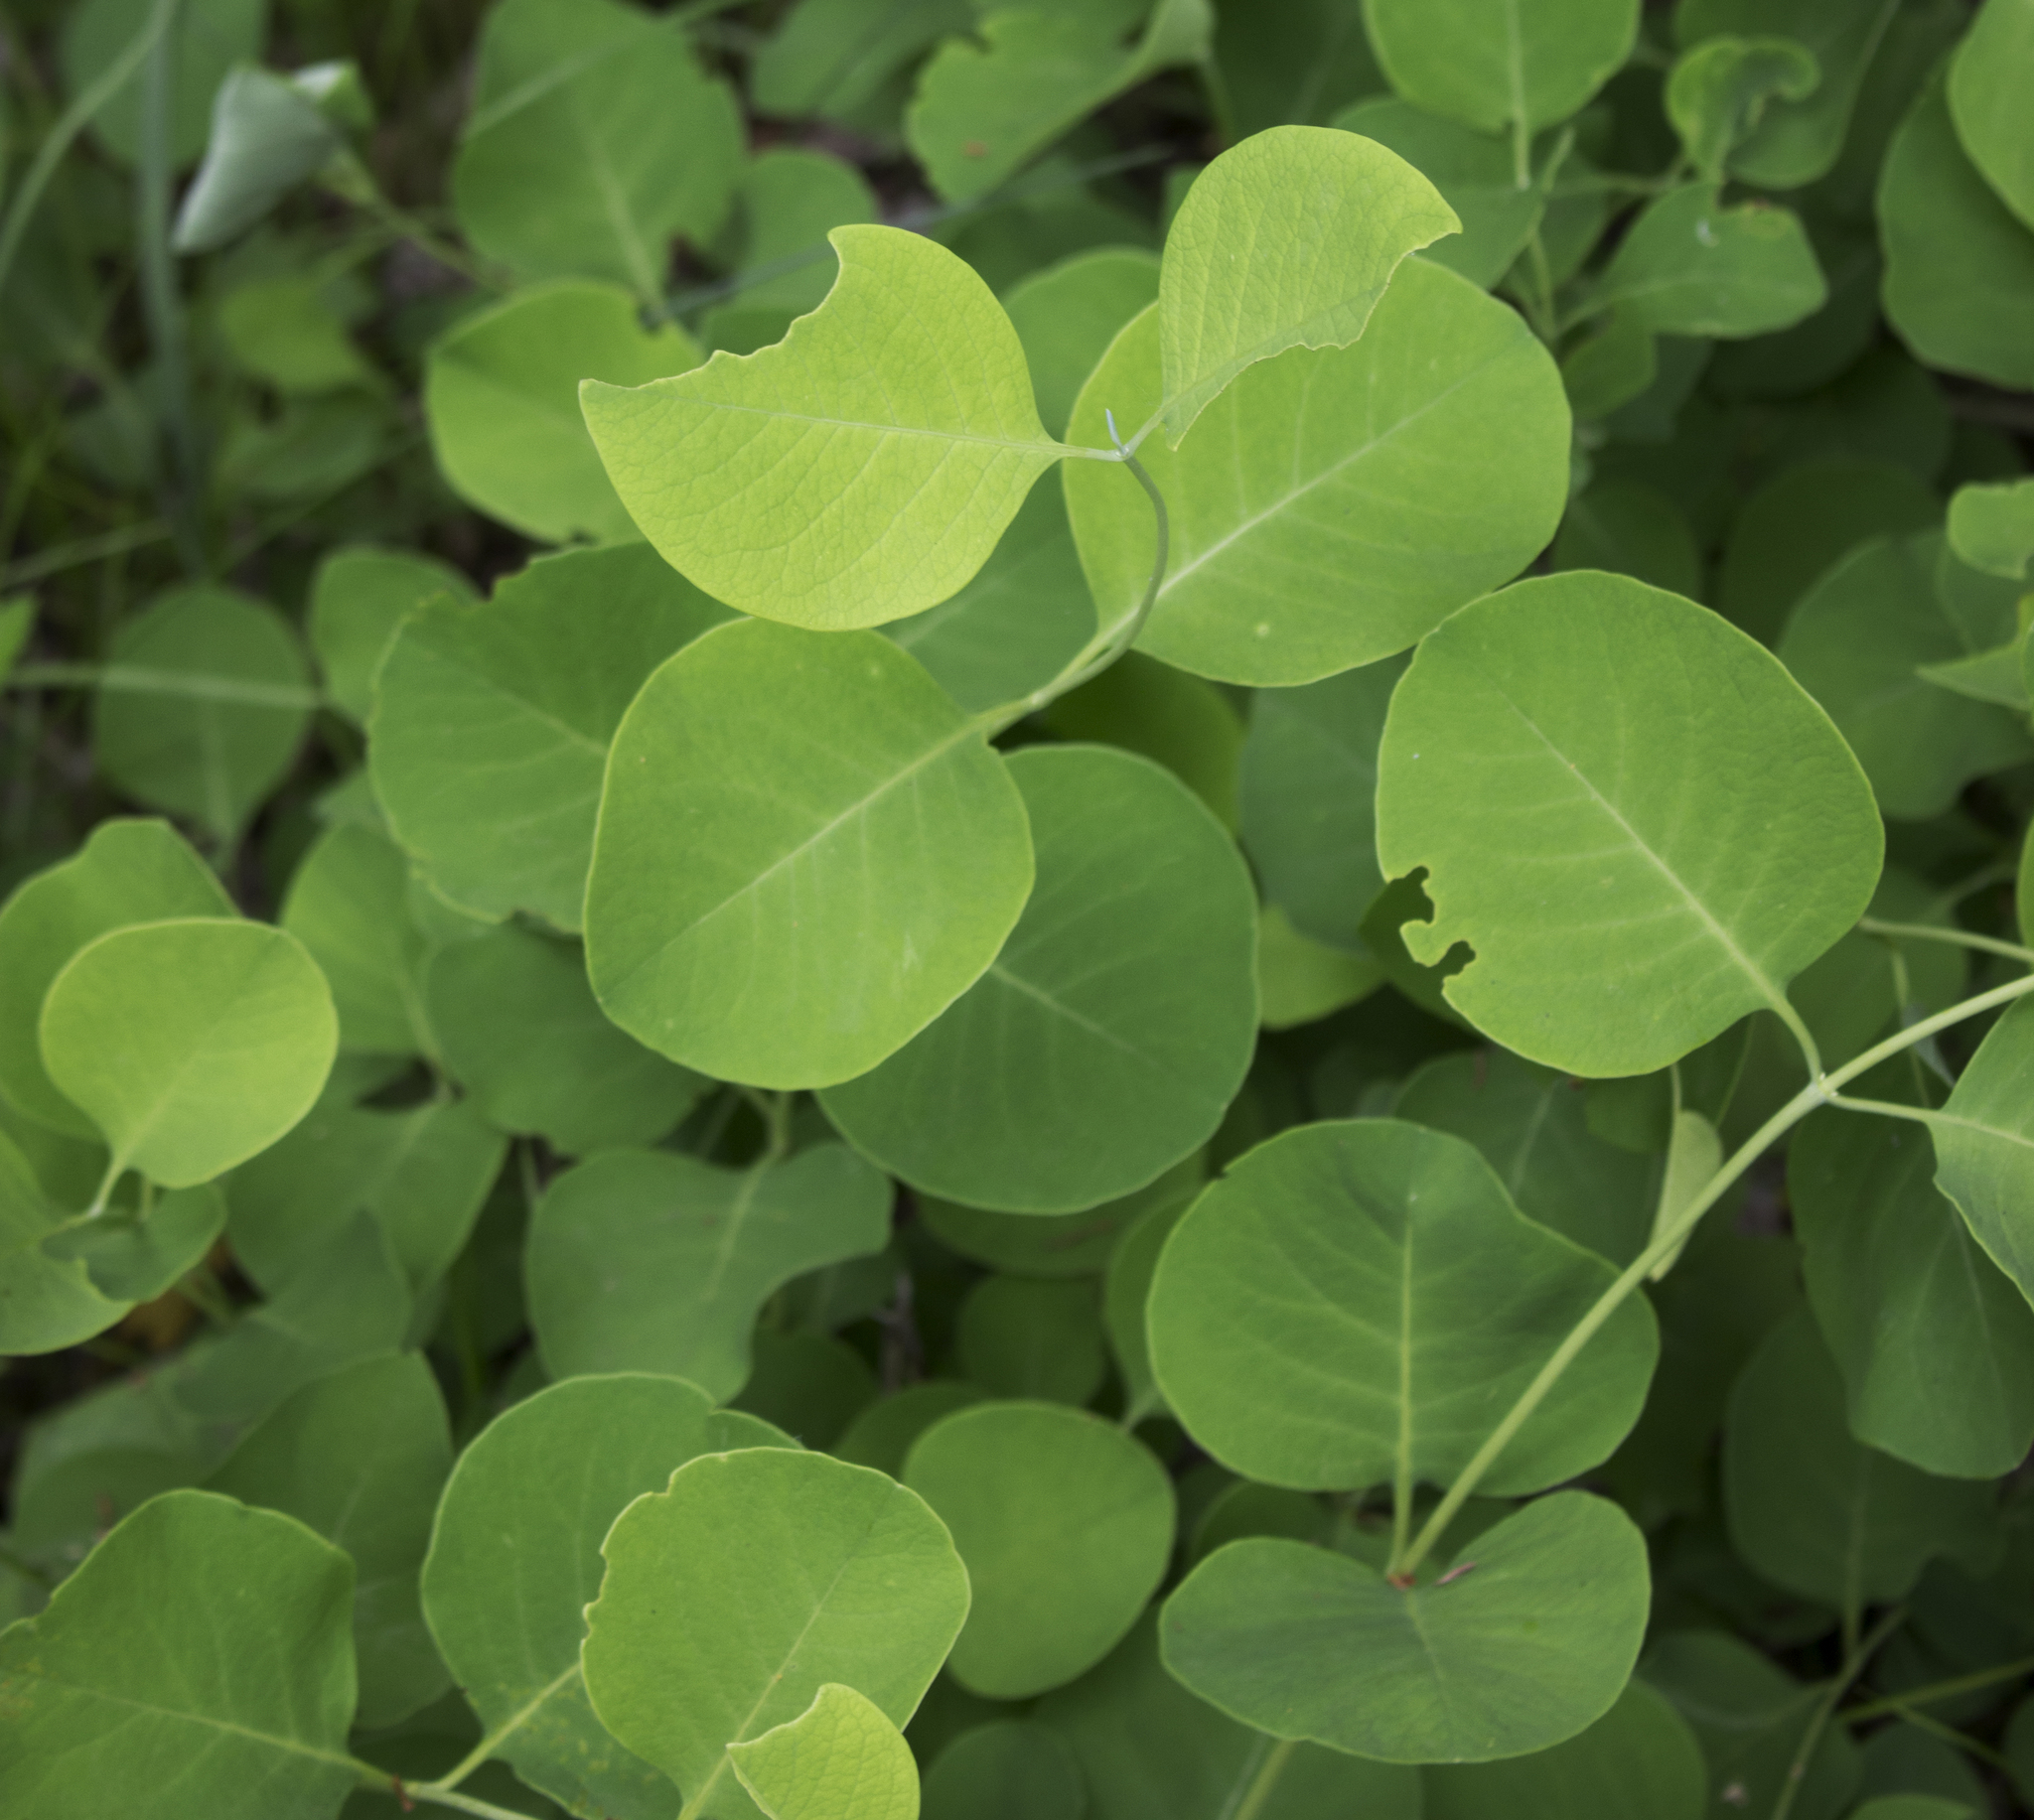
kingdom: Plantae
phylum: Tracheophyta
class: Magnoliopsida
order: Dipsacales
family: Caprifoliaceae
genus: Lonicera
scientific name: Lonicera reticulata
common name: Grape honeysuckle
